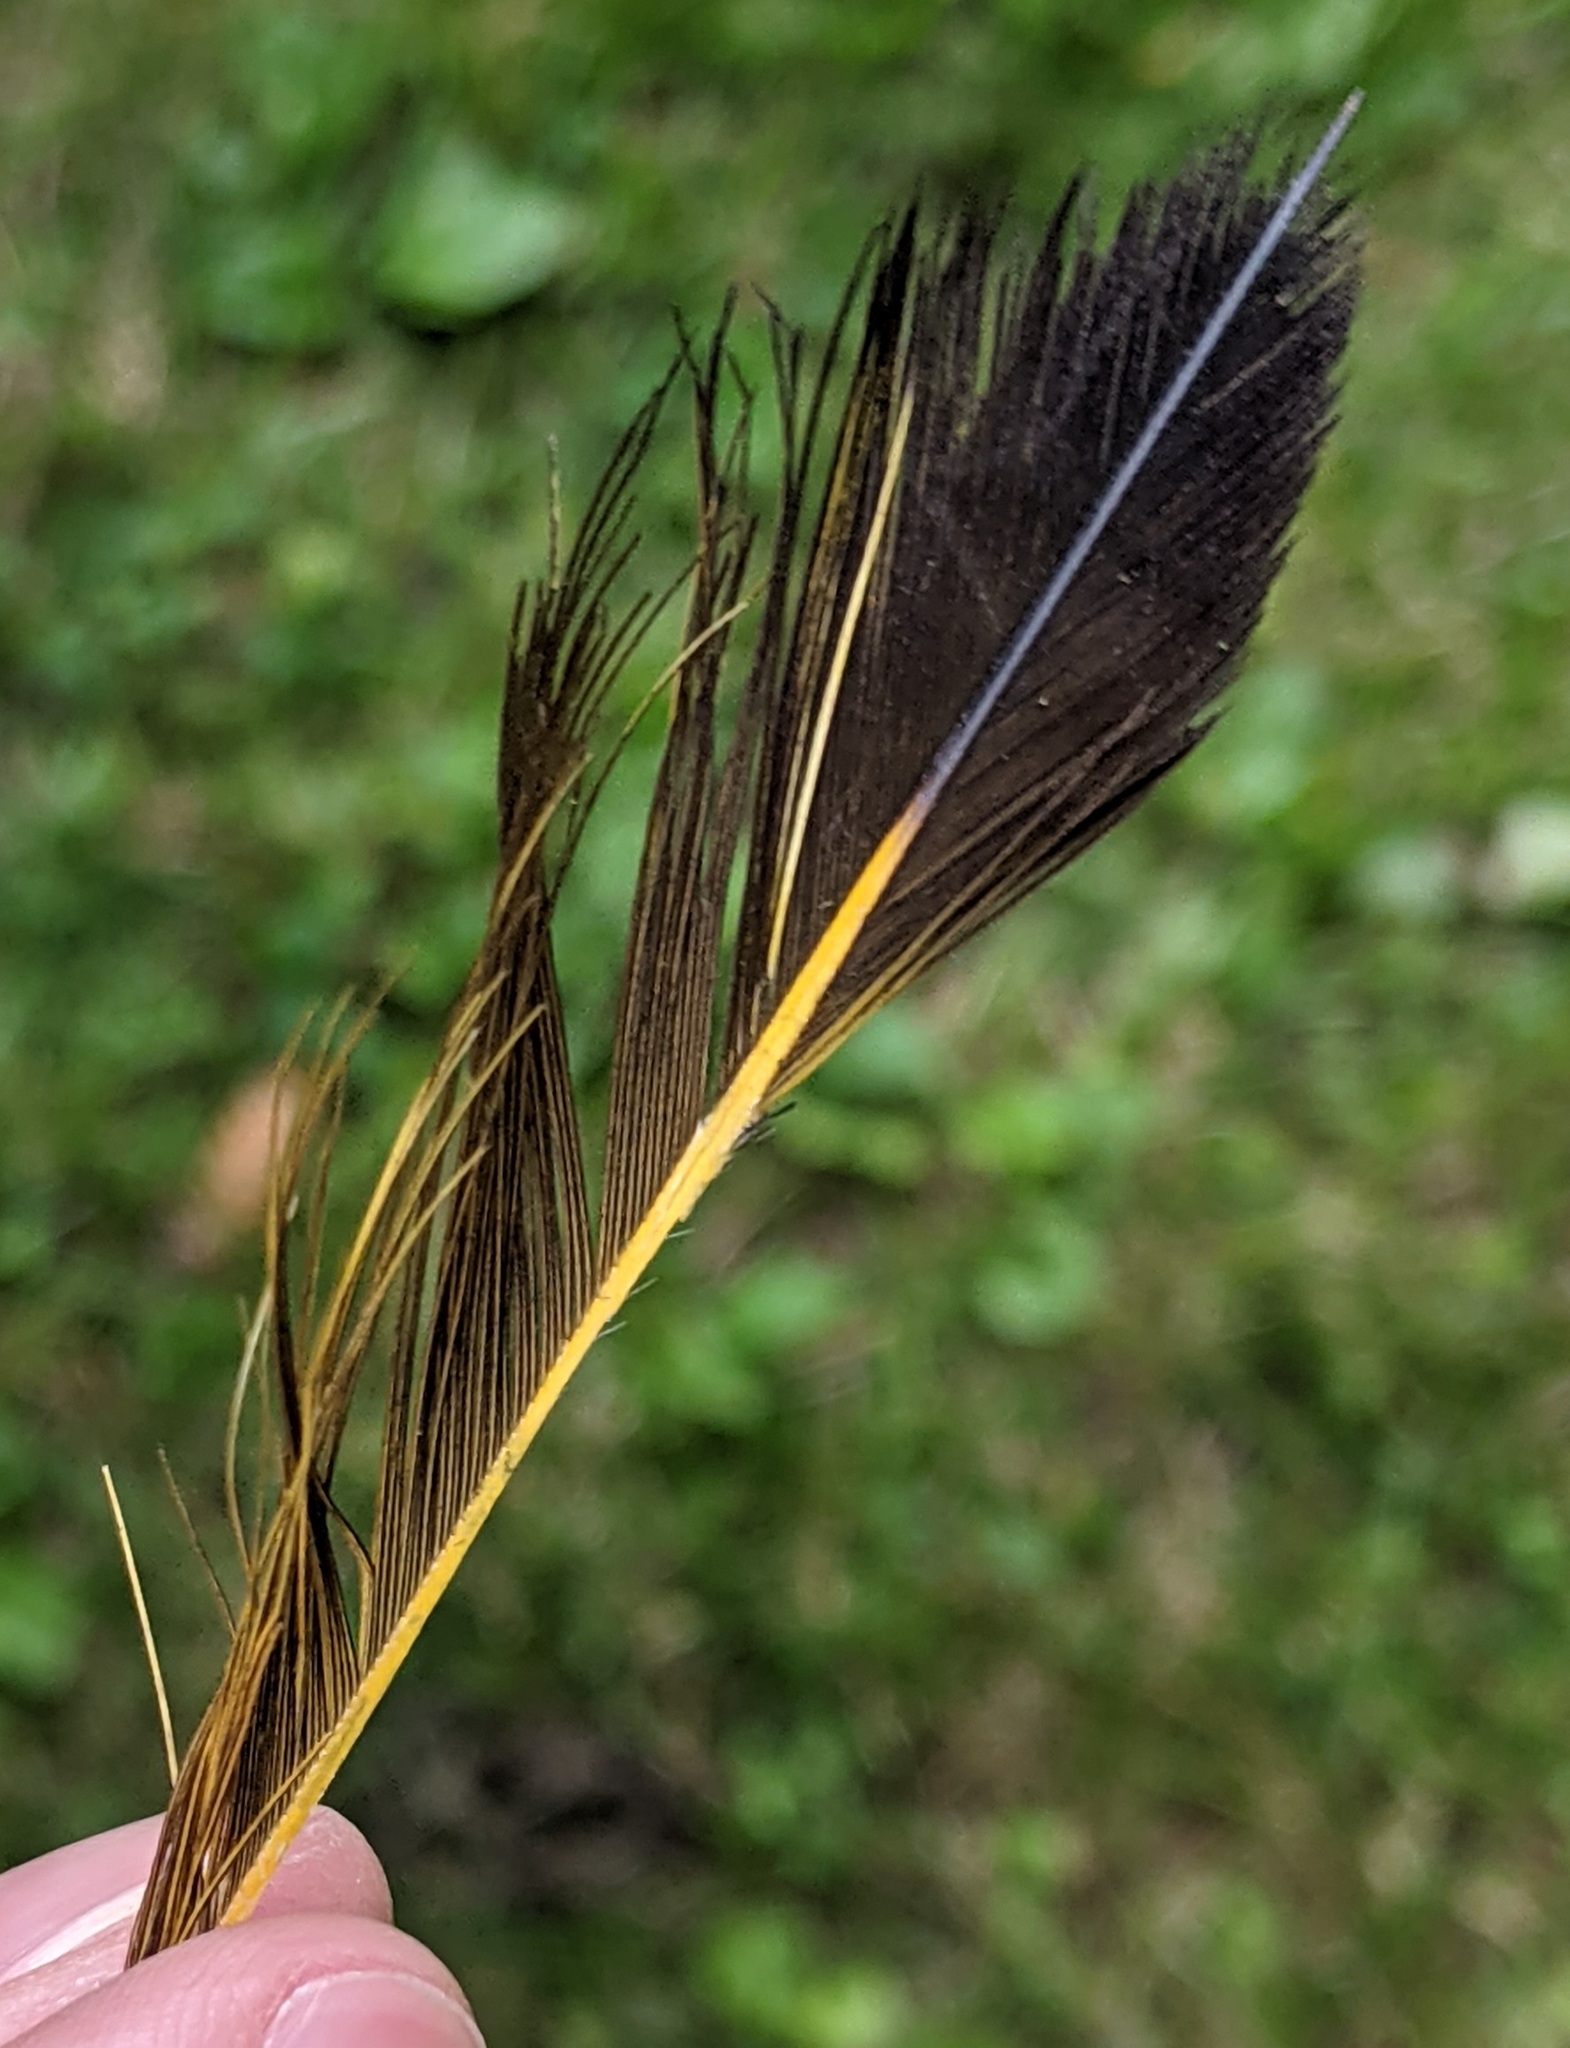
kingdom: Animalia
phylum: Chordata
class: Aves
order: Piciformes
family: Picidae
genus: Colaptes
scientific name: Colaptes auratus
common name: Northern flicker
